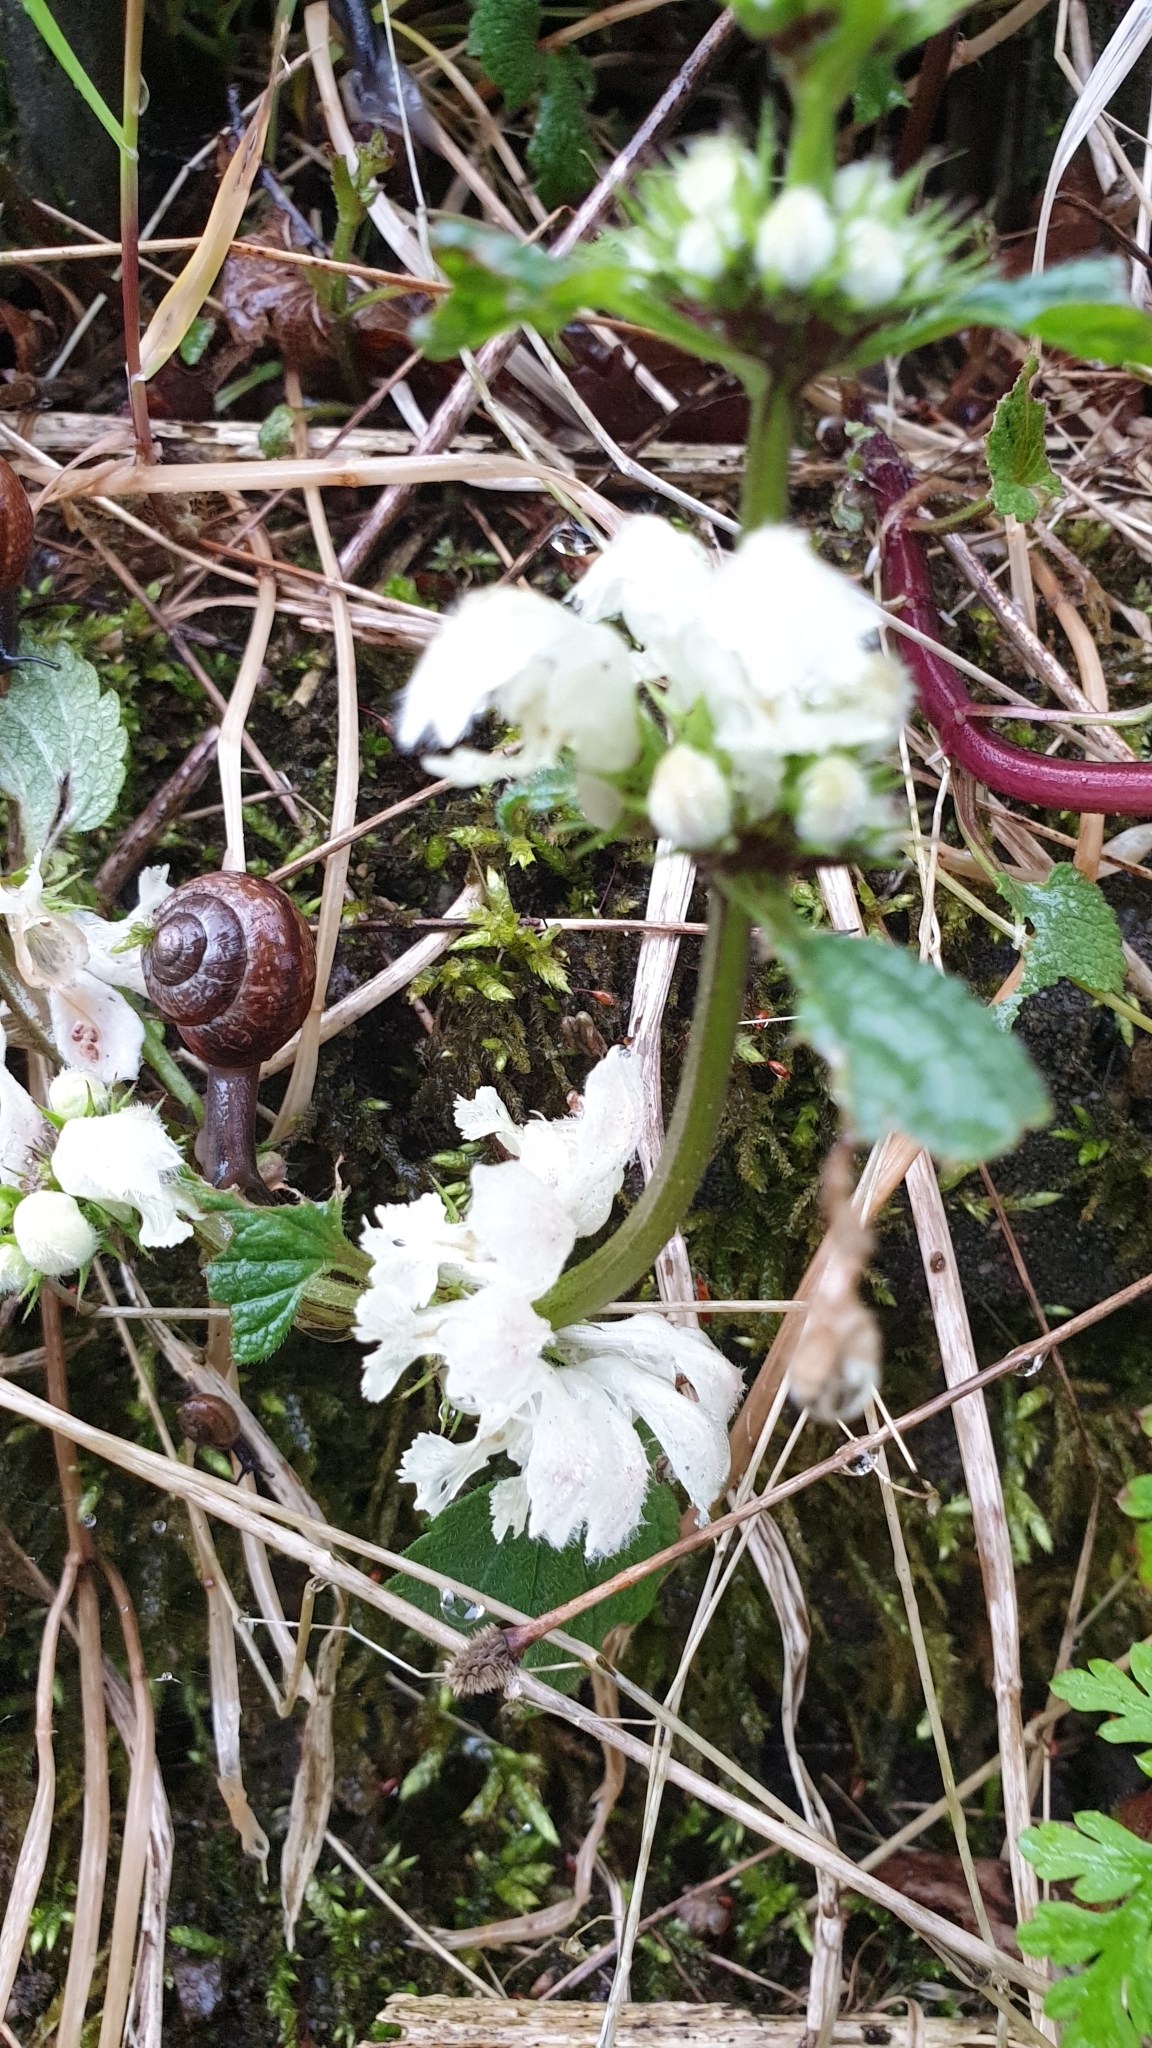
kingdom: Plantae
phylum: Tracheophyta
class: Magnoliopsida
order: Lamiales
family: Lamiaceae
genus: Lamium
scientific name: Lamium album
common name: White dead-nettle
